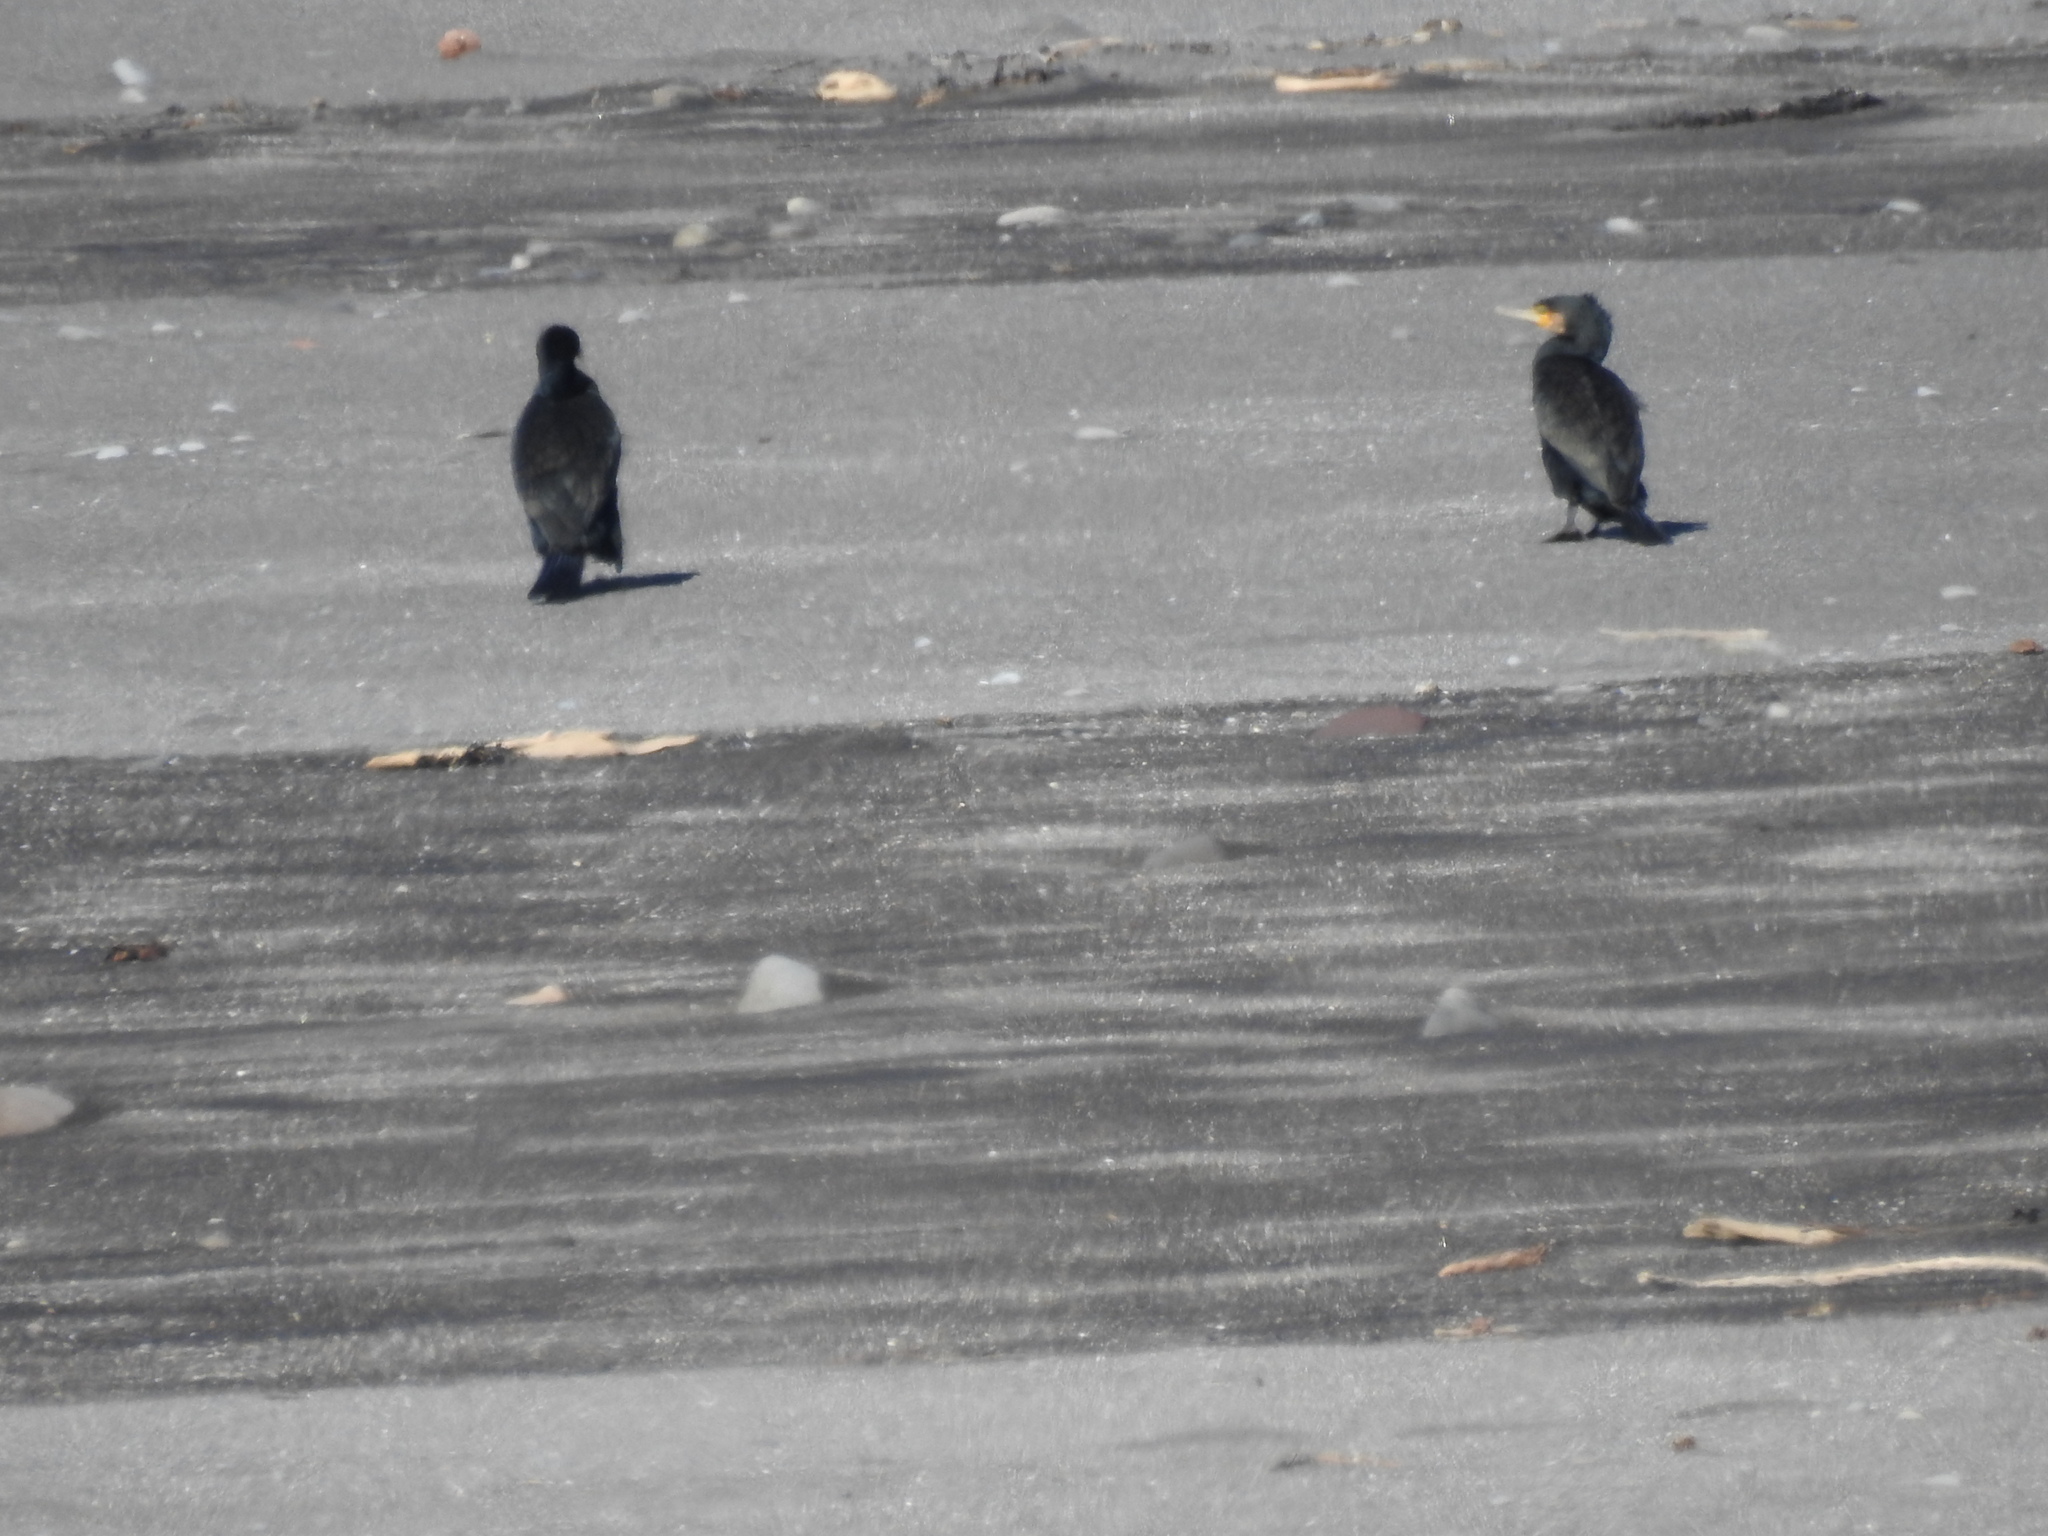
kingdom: Animalia
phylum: Chordata
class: Aves
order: Suliformes
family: Phalacrocoracidae
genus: Phalacrocorax
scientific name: Phalacrocorax carbo
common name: Great cormorant
